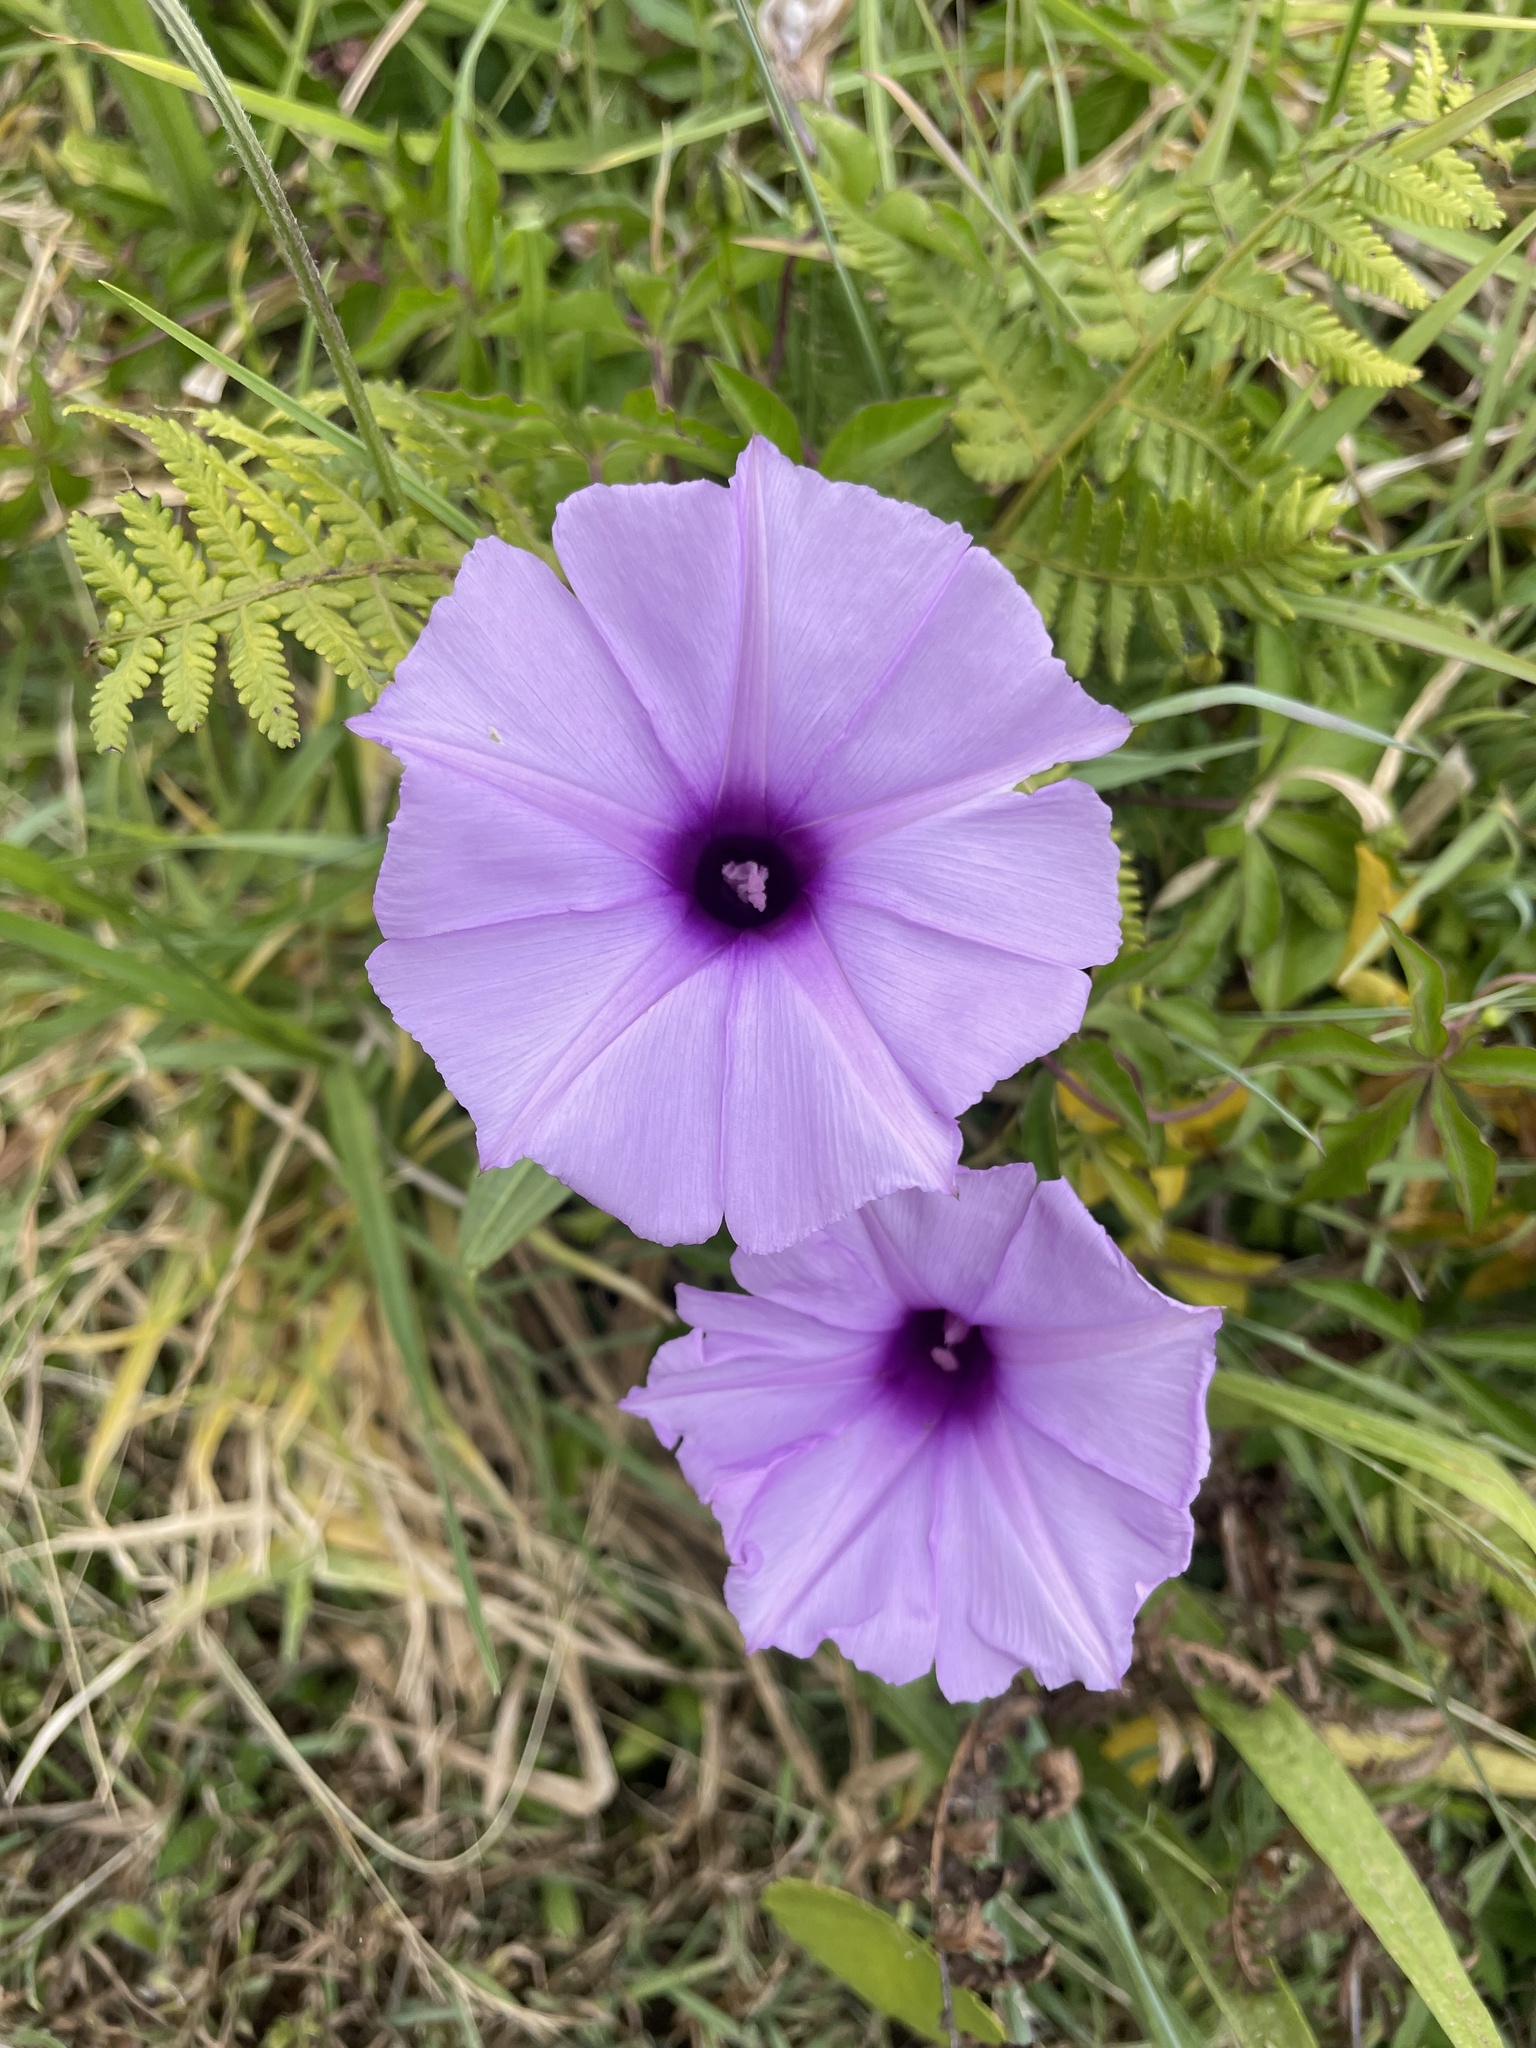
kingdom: Plantae
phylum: Tracheophyta
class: Magnoliopsida
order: Solanales
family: Convolvulaceae
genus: Ipomoea
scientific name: Ipomoea cairica
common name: Mile a minute vine
